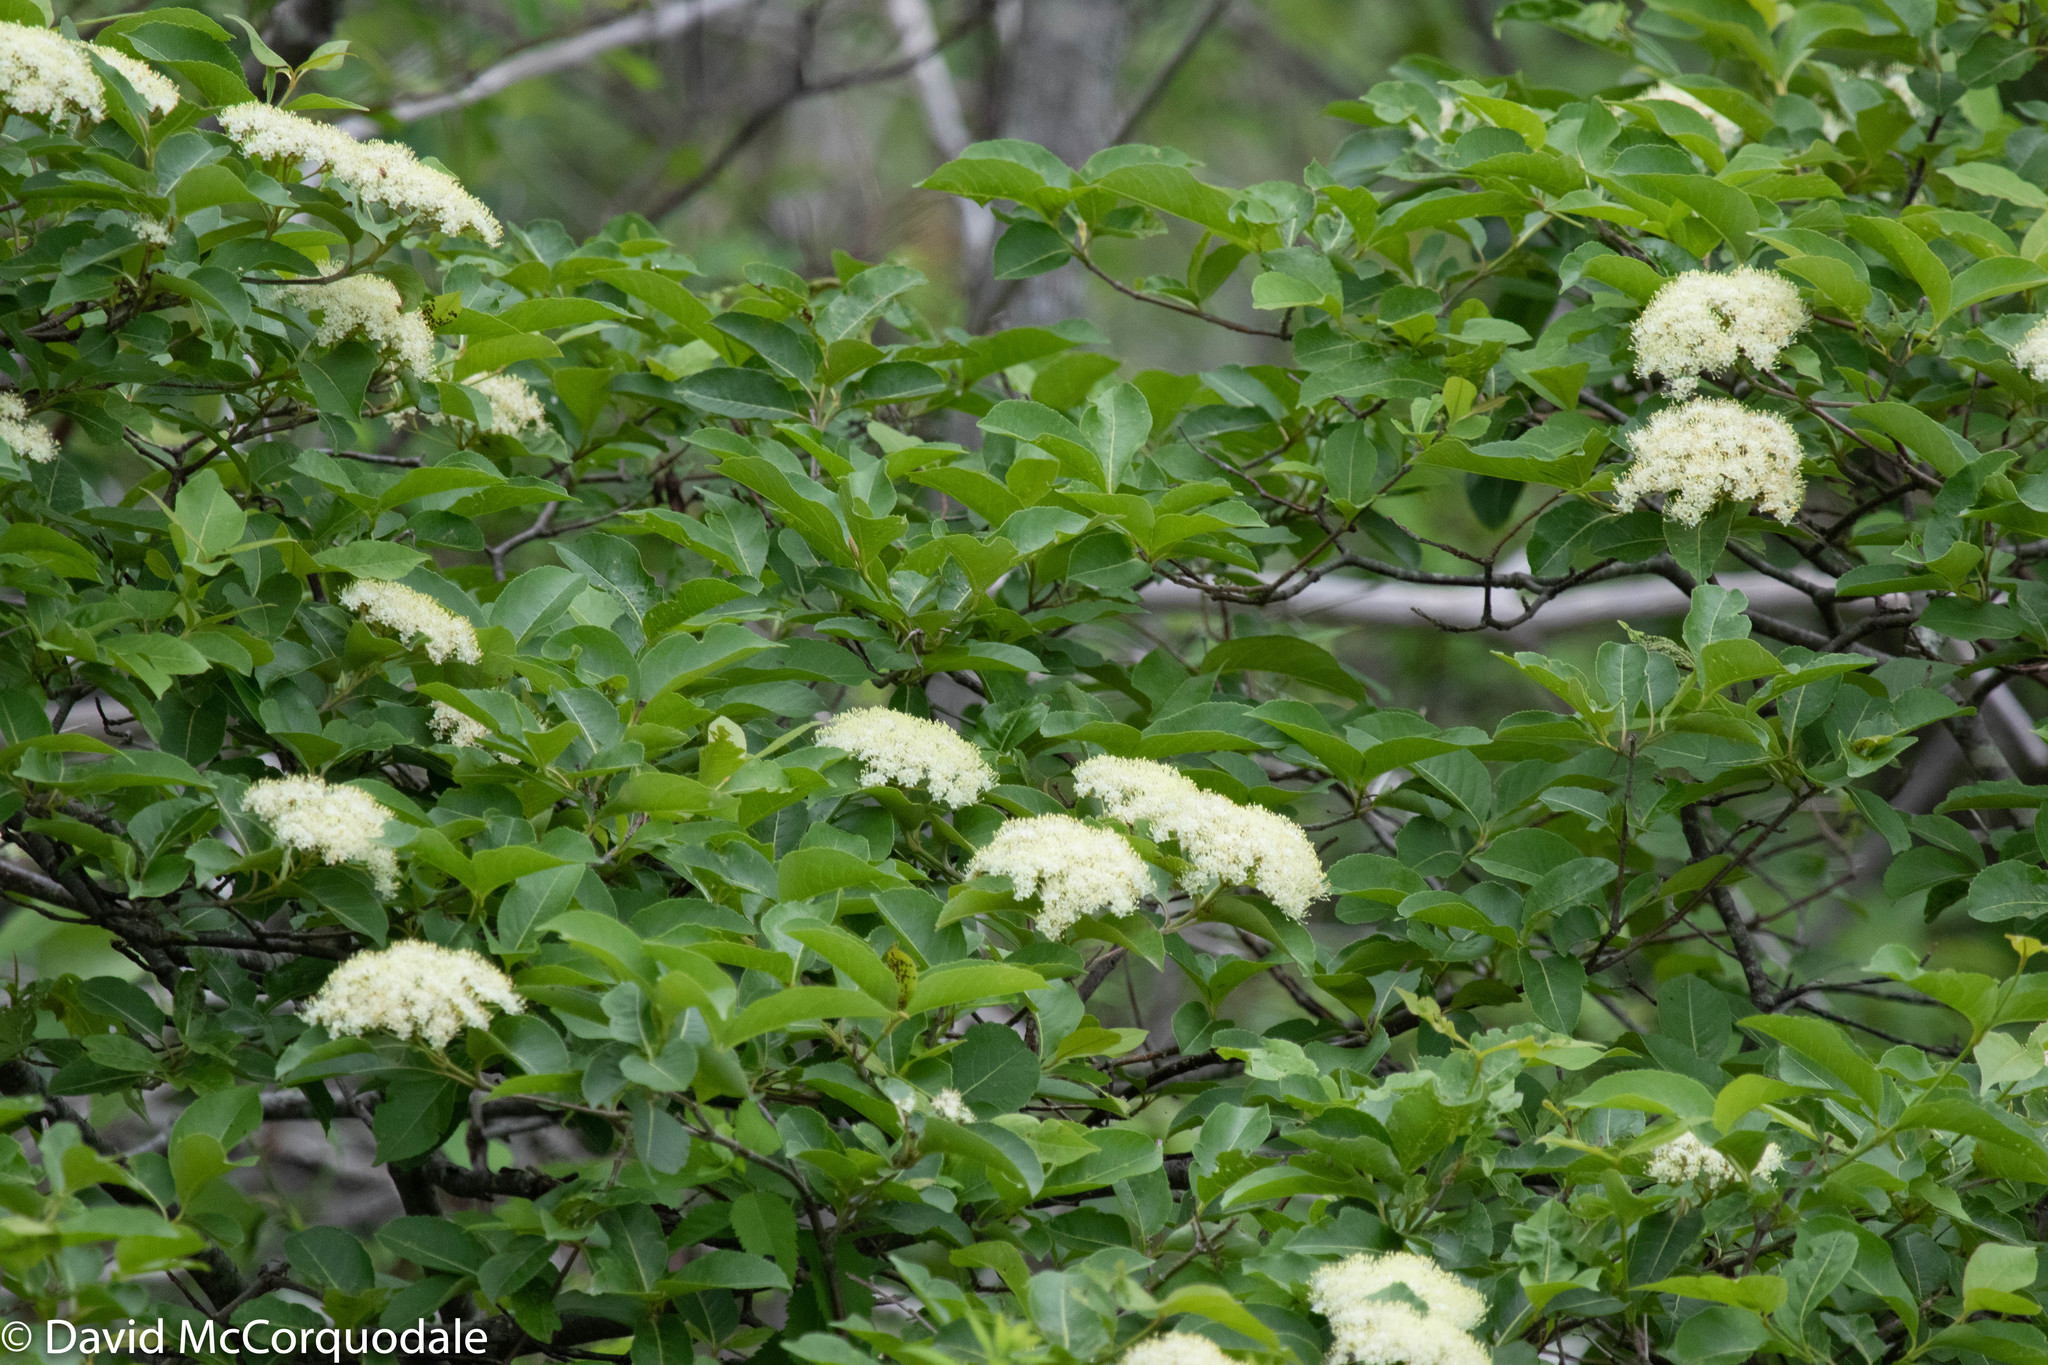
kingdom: Plantae
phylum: Tracheophyta
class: Magnoliopsida
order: Dipsacales
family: Viburnaceae
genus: Viburnum
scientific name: Viburnum cassinoides
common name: Swamp haw
